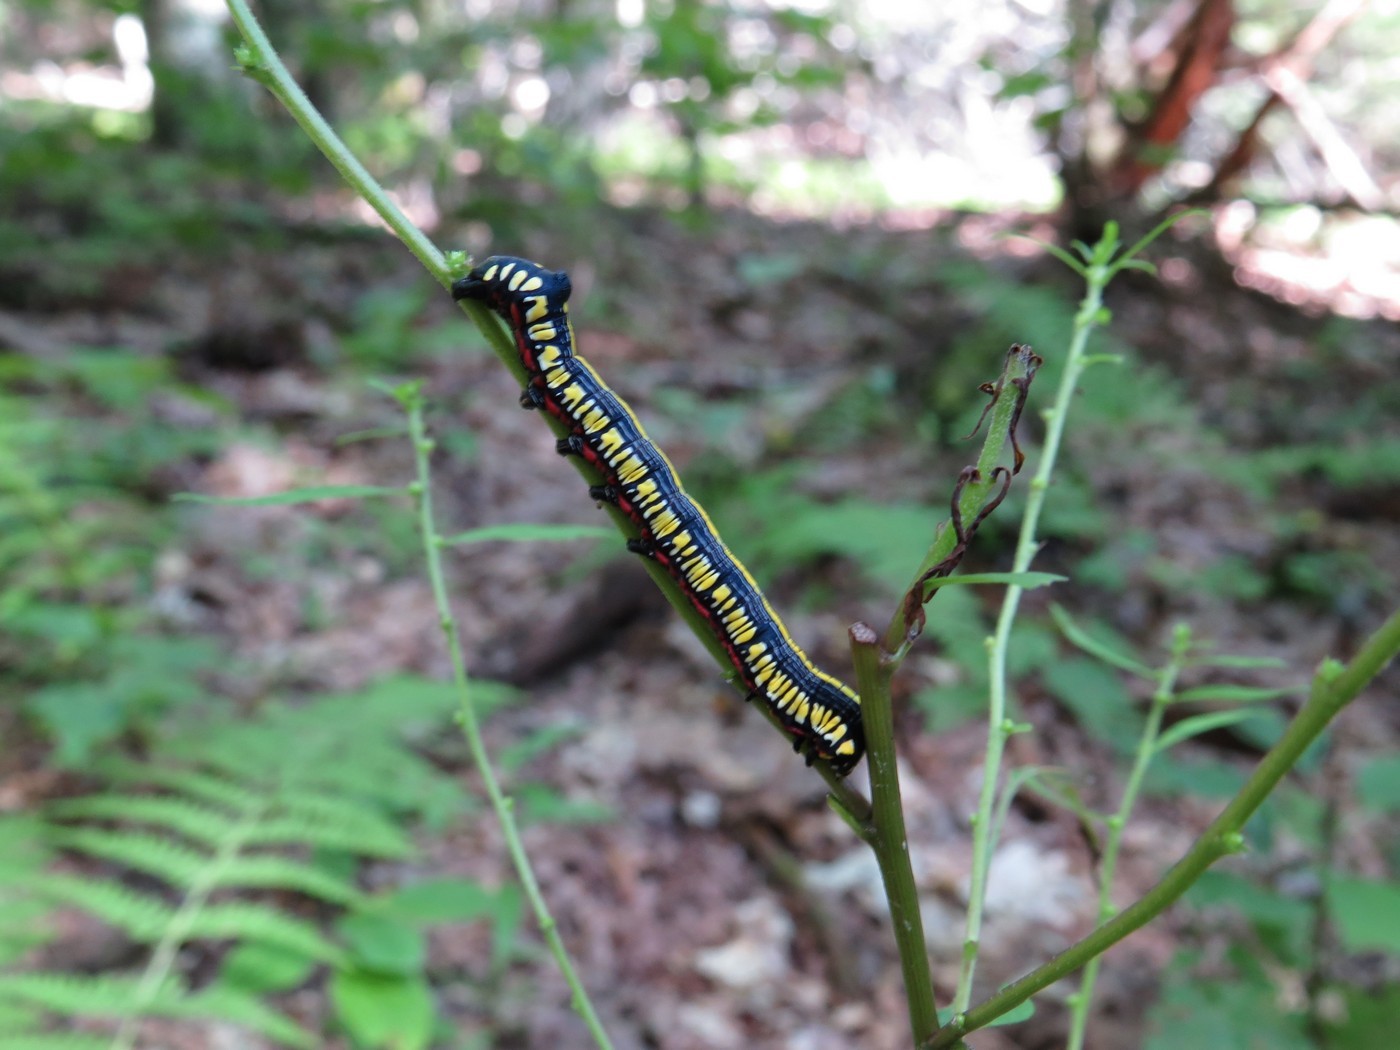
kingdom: Animalia
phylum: Arthropoda
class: Insecta
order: Lepidoptera
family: Noctuidae
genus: Cucullia
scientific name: Cucullia convexipennis
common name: Brown-hooded owlet
